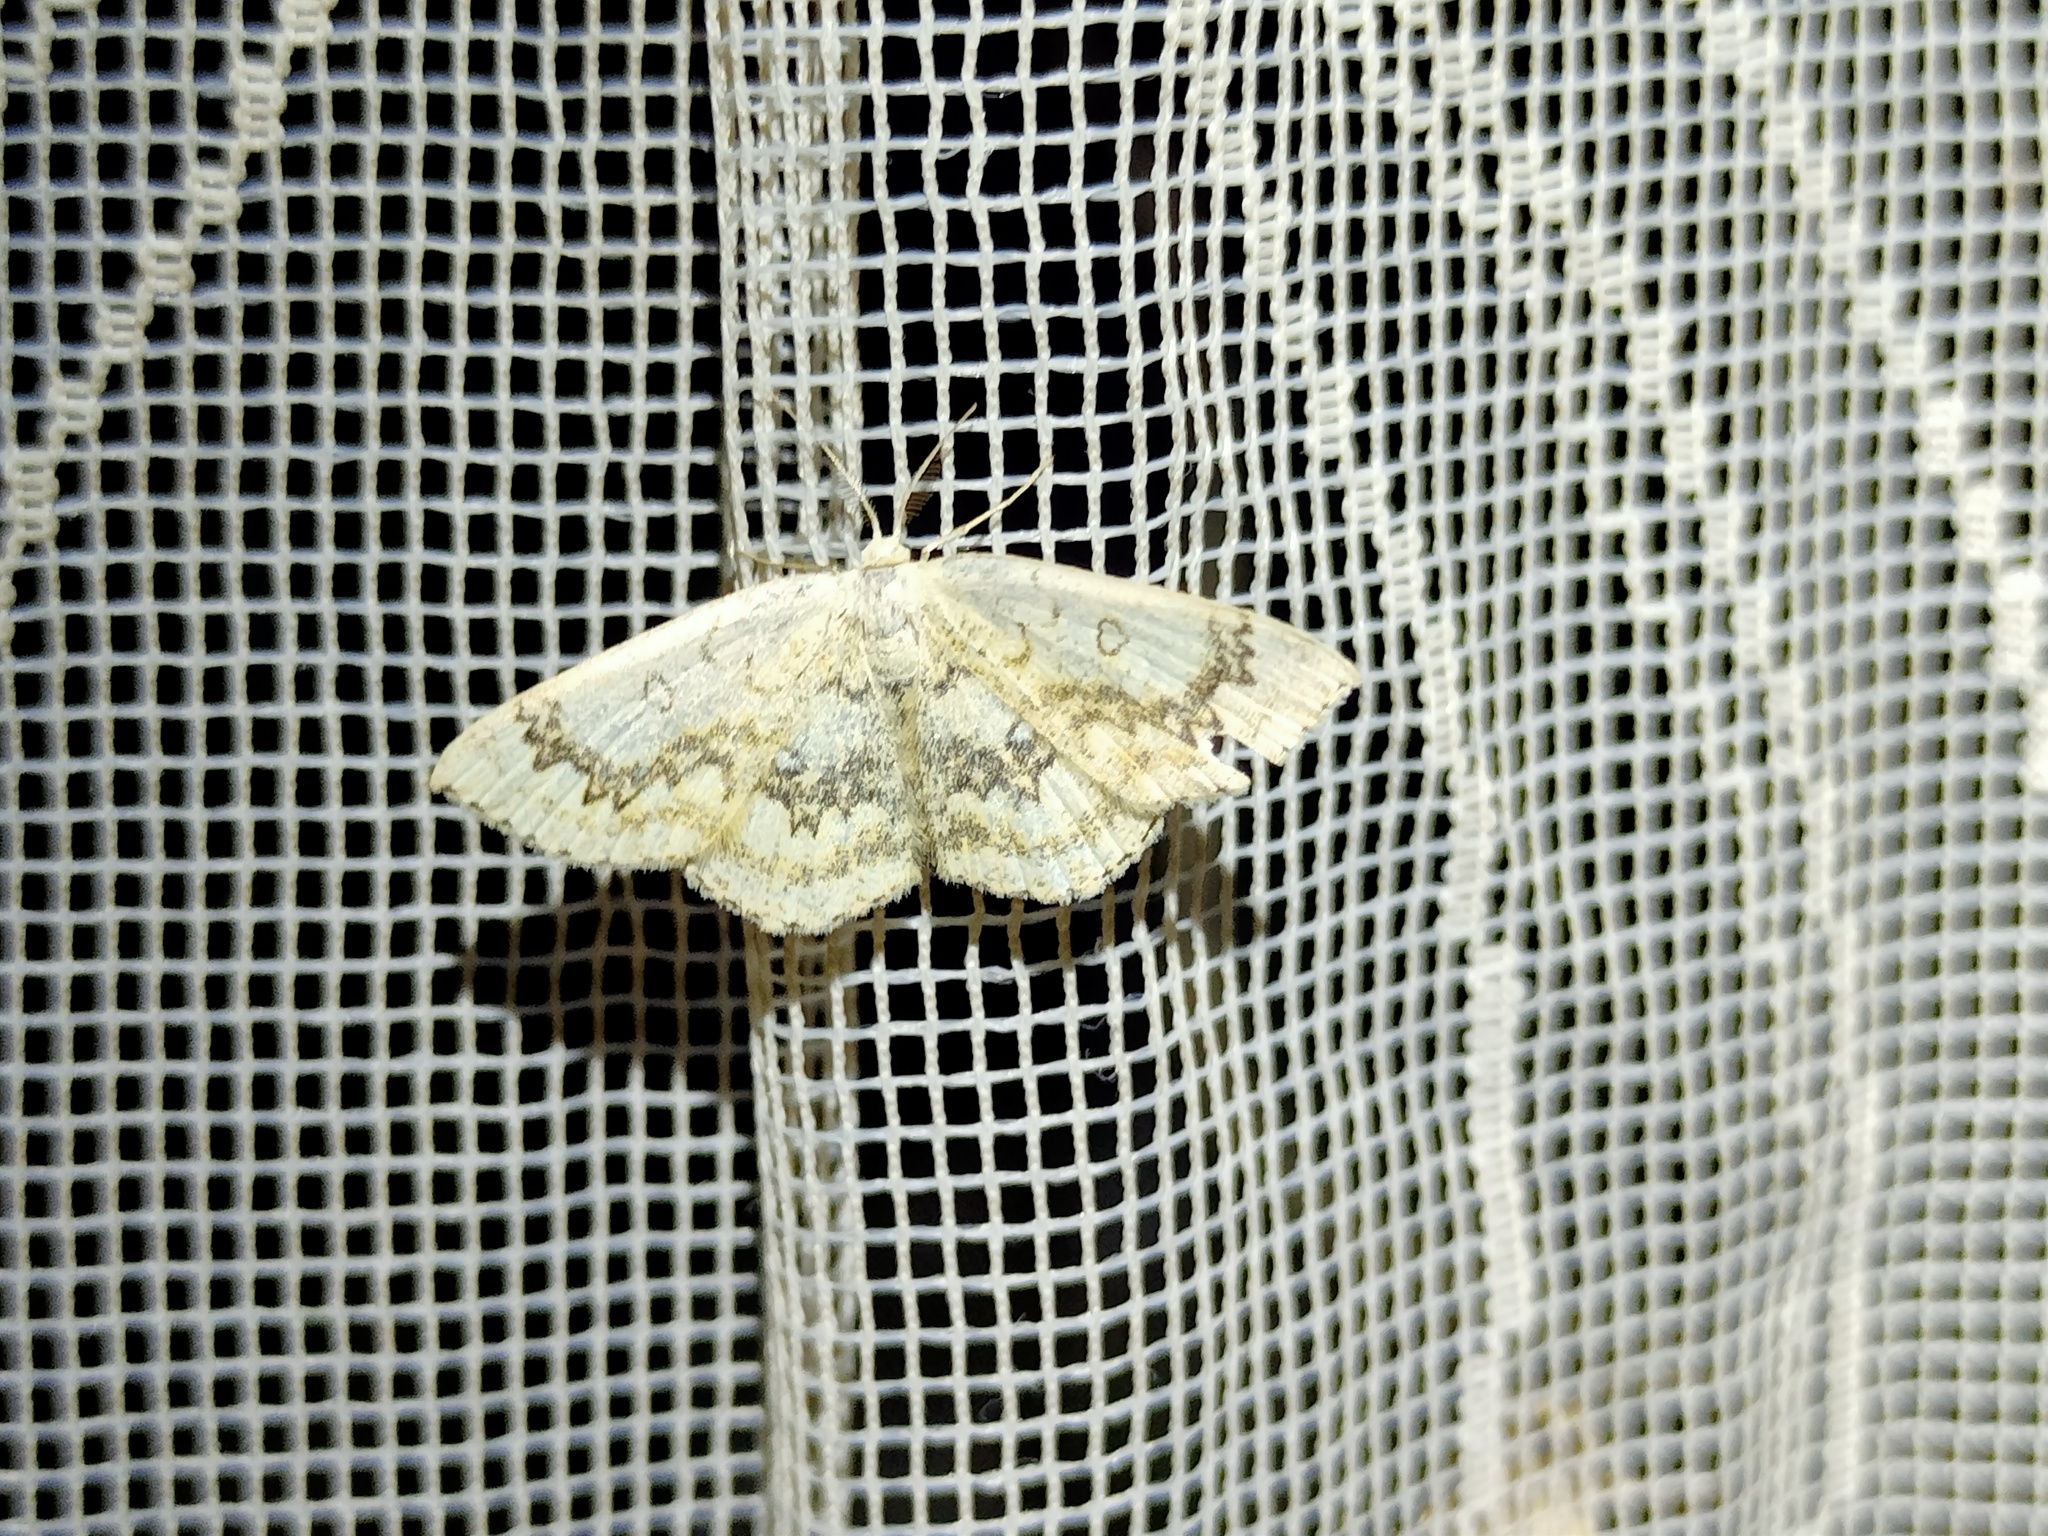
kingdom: Animalia
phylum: Arthropoda
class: Insecta
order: Lepidoptera
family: Geometridae
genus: Cyclophora
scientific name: Cyclophora annularia
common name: Mocha
